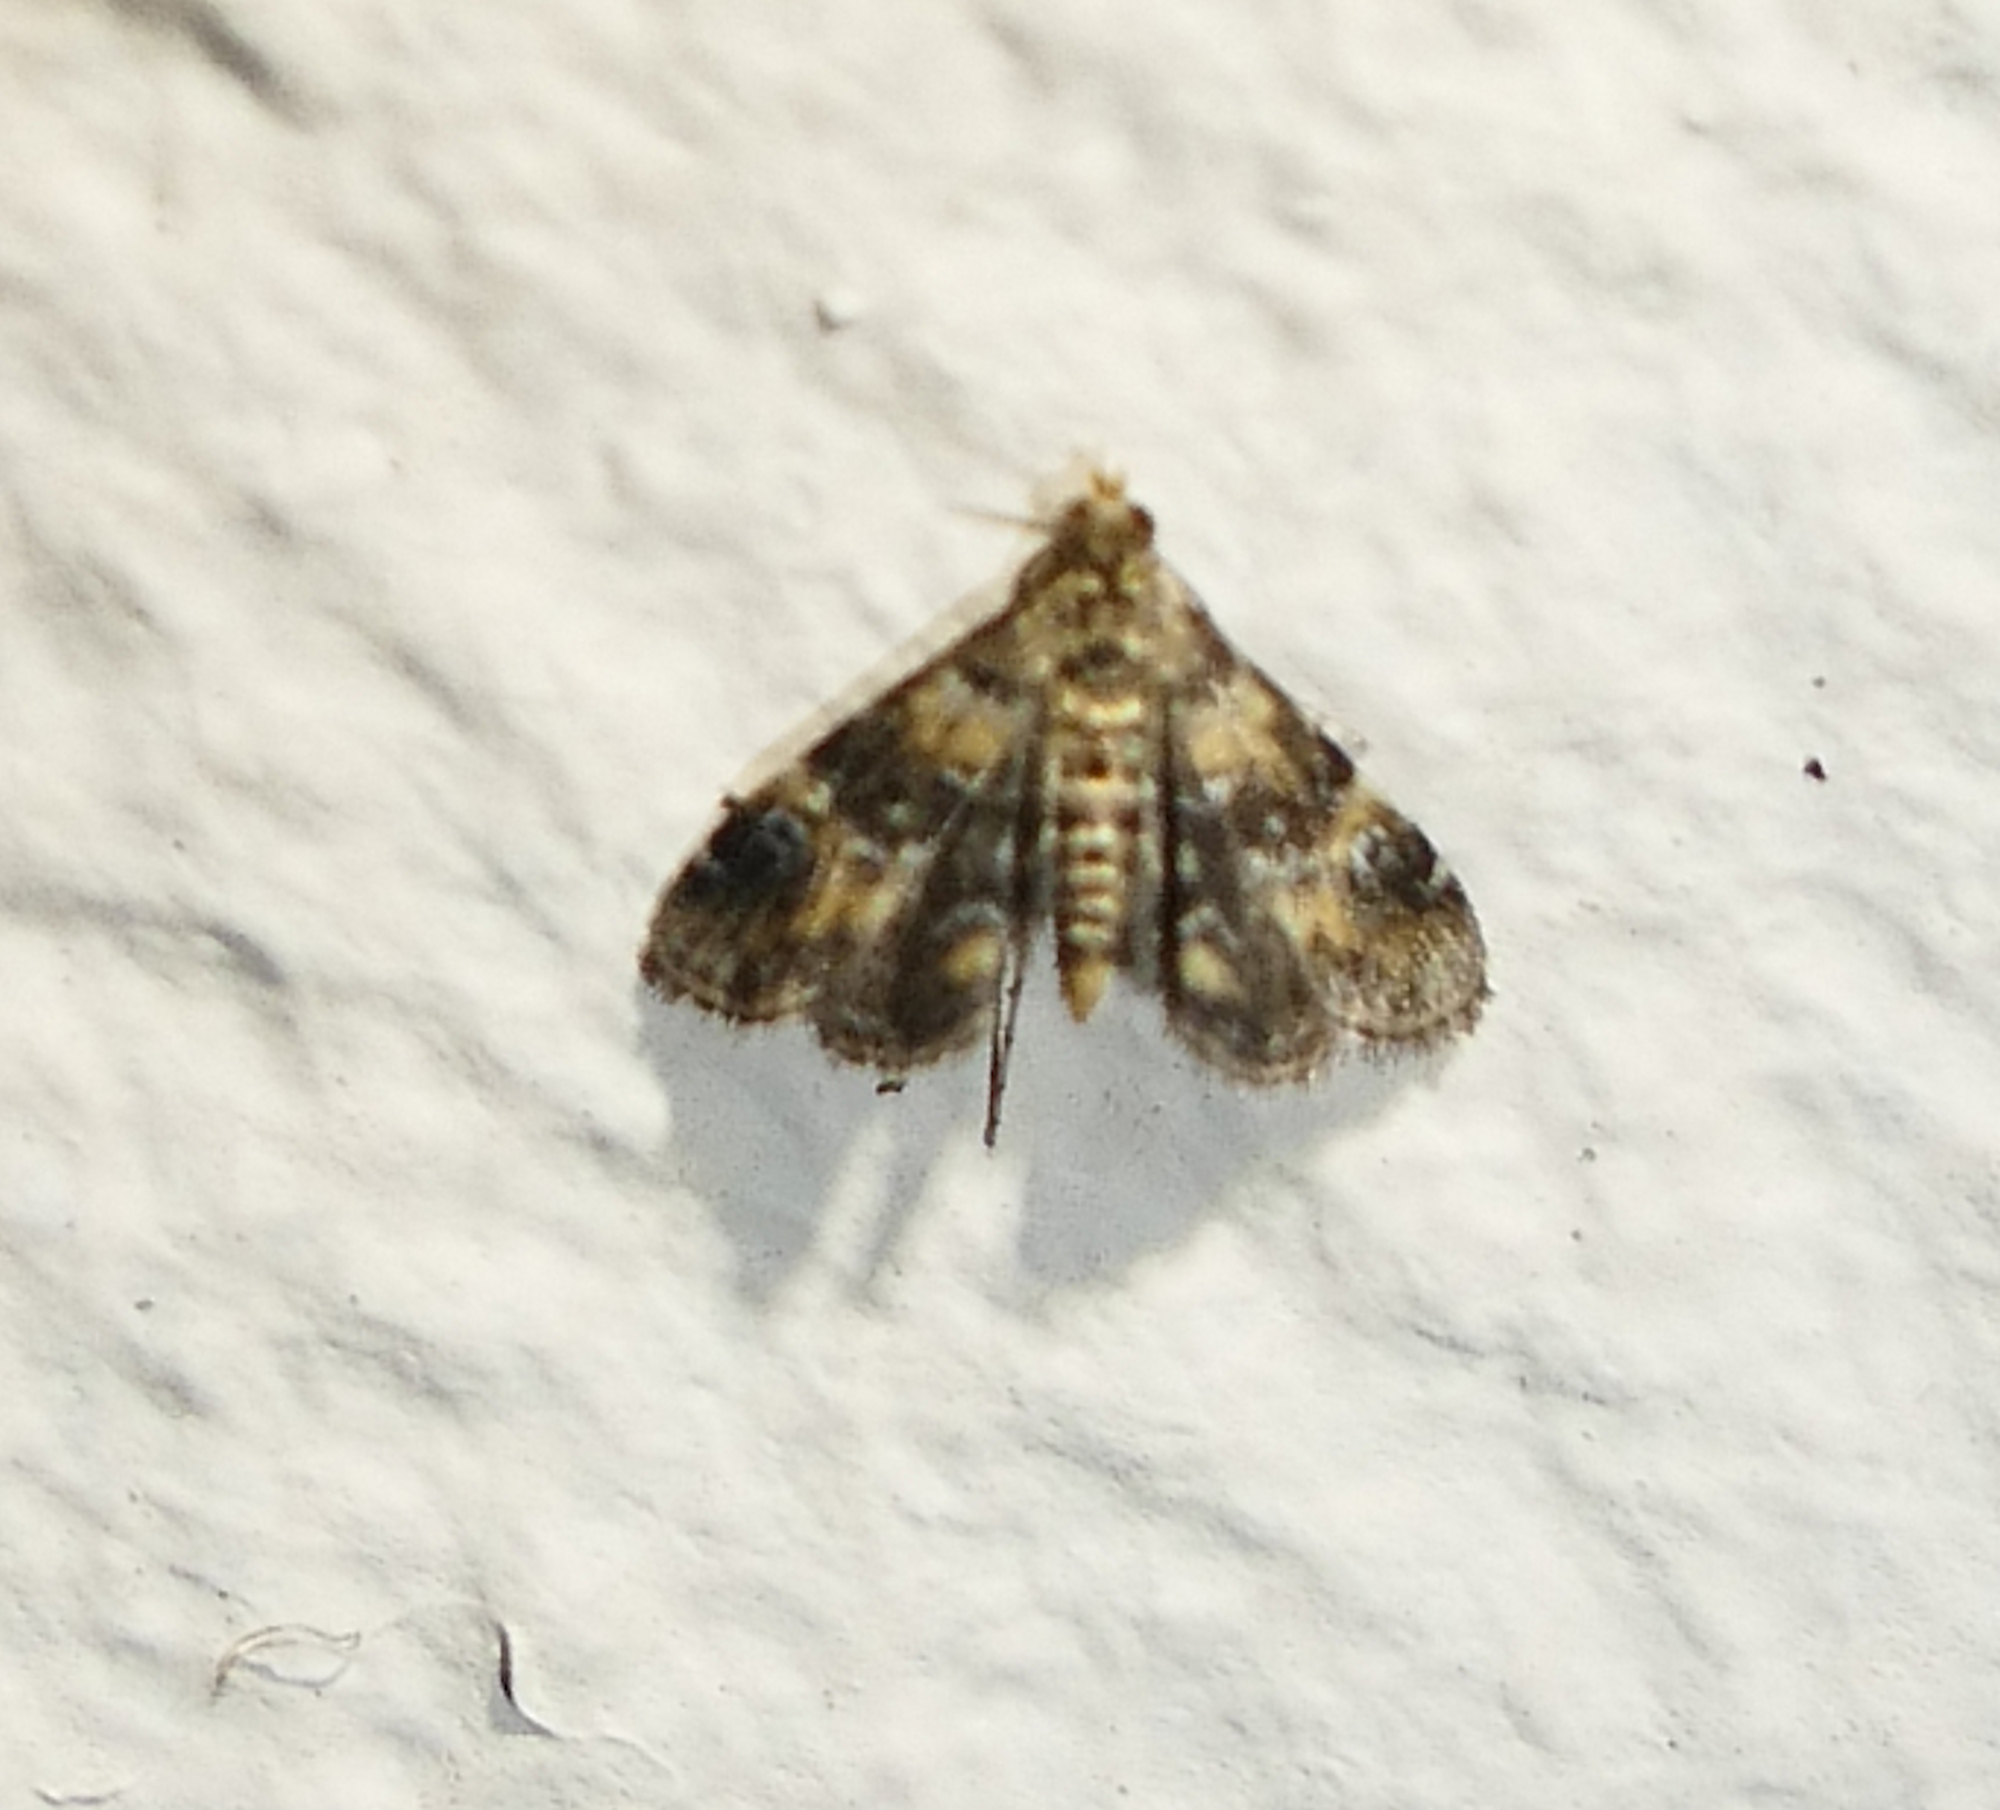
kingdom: Animalia
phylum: Arthropoda
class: Insecta
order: Lepidoptera
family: Crambidae
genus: Elophila
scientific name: Elophila obliteralis
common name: Waterlily leafcutter moth
